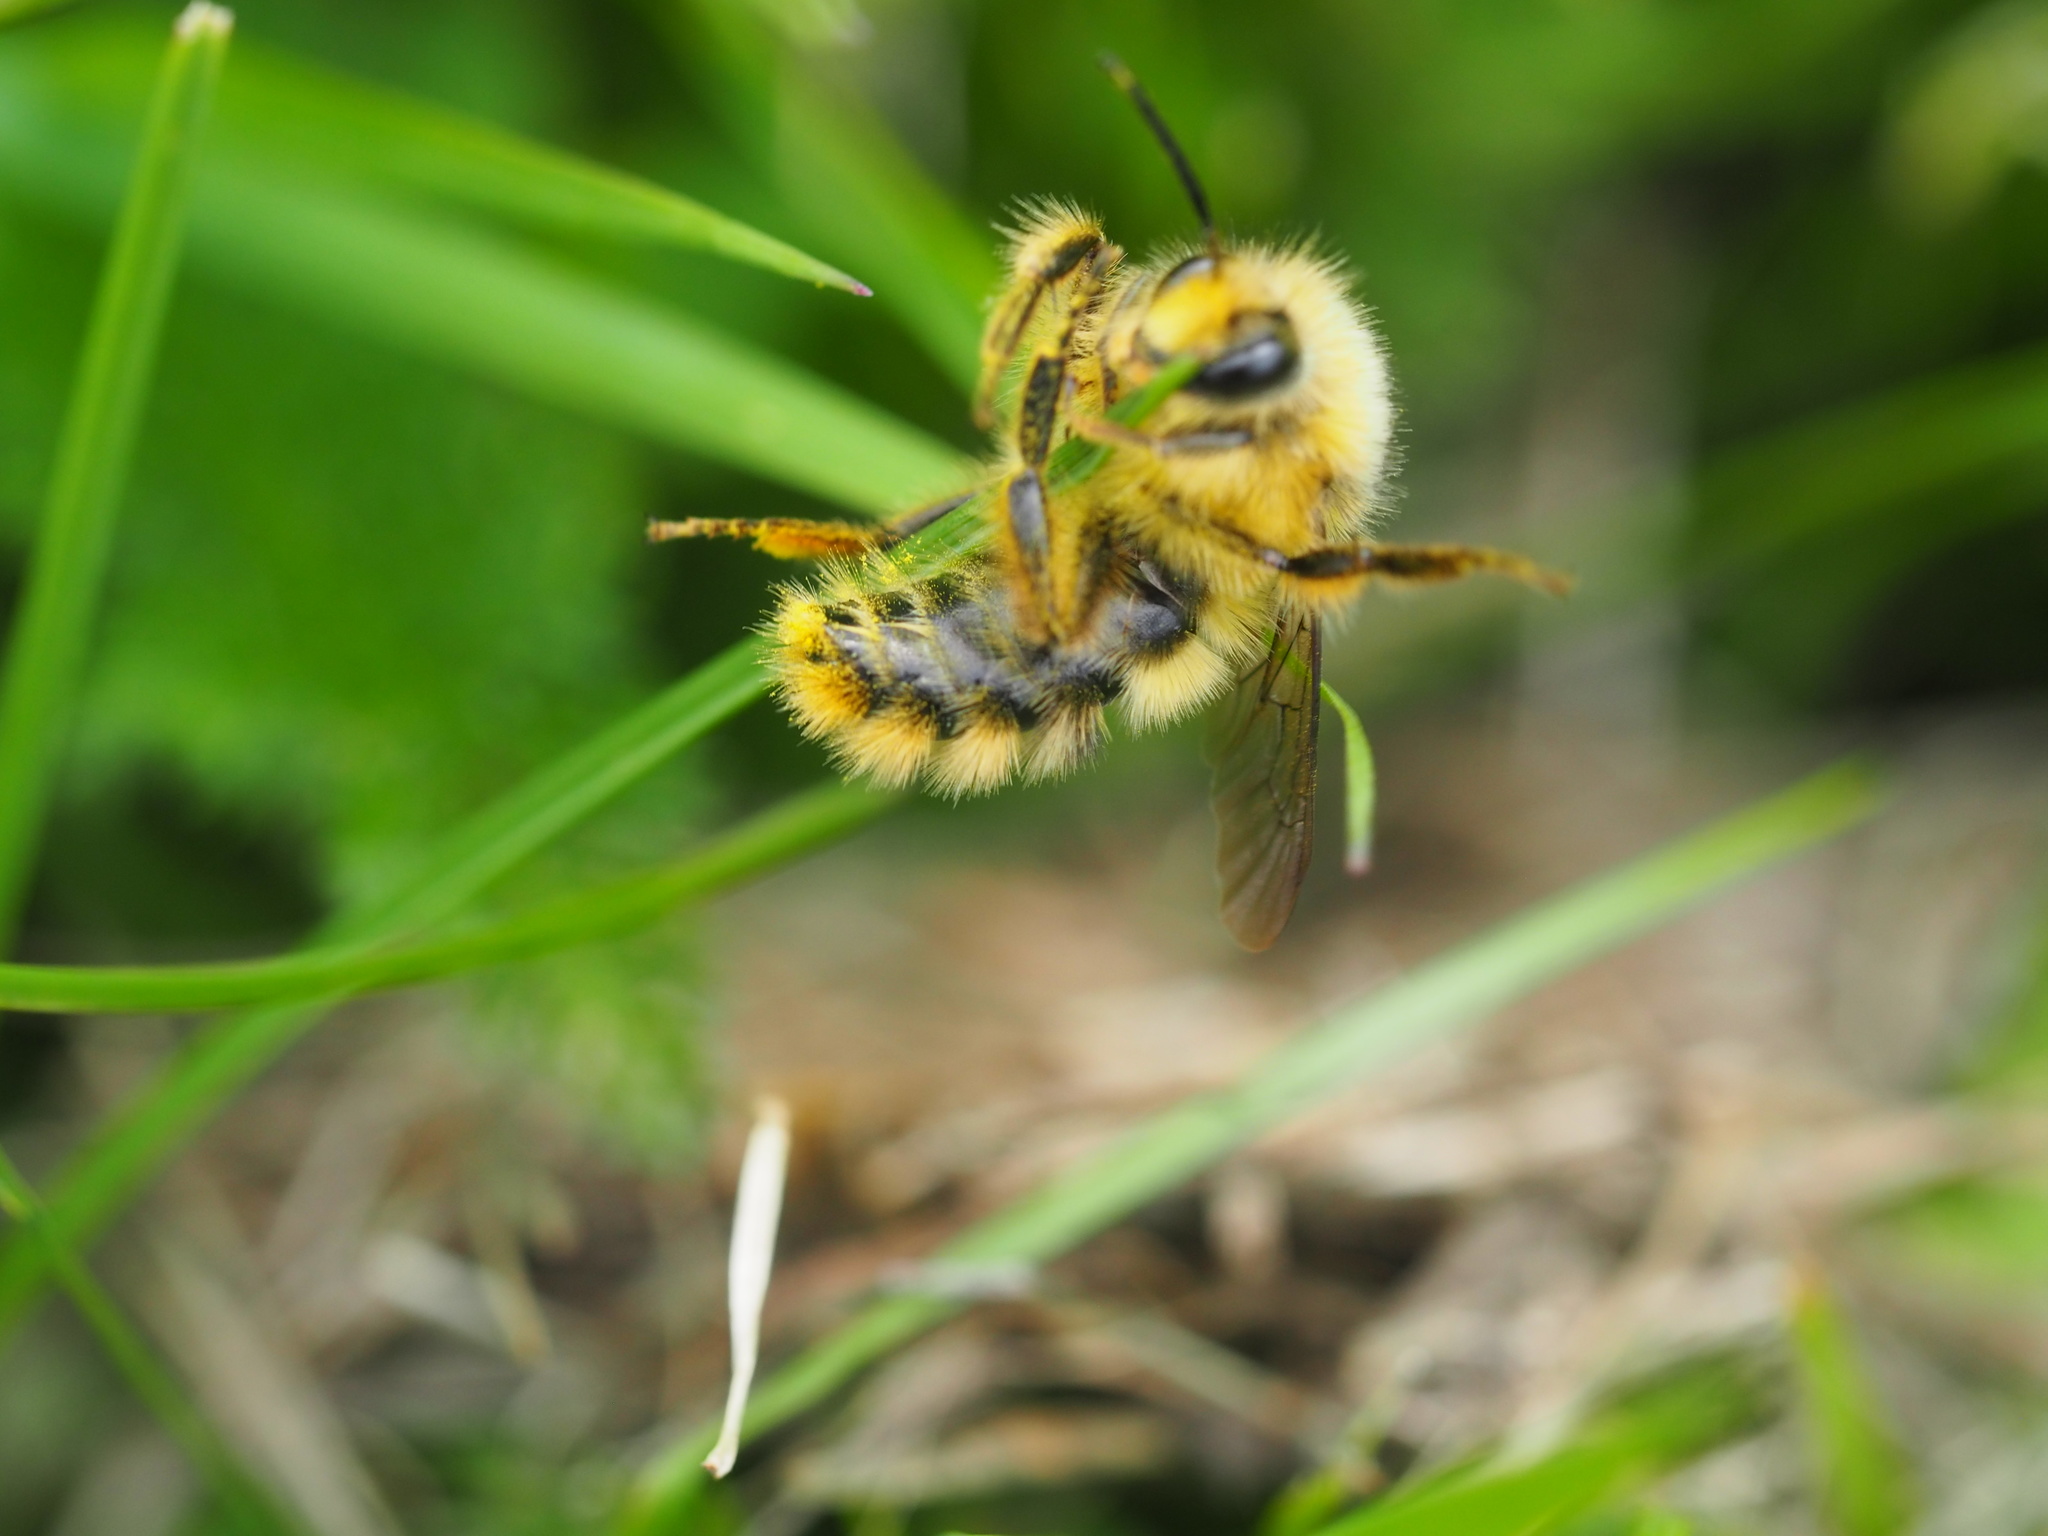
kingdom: Animalia
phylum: Arthropoda
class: Insecta
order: Hymenoptera
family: Apidae
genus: Bombus
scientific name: Bombus mixtus
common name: Fuzzy-horned bumble bee
